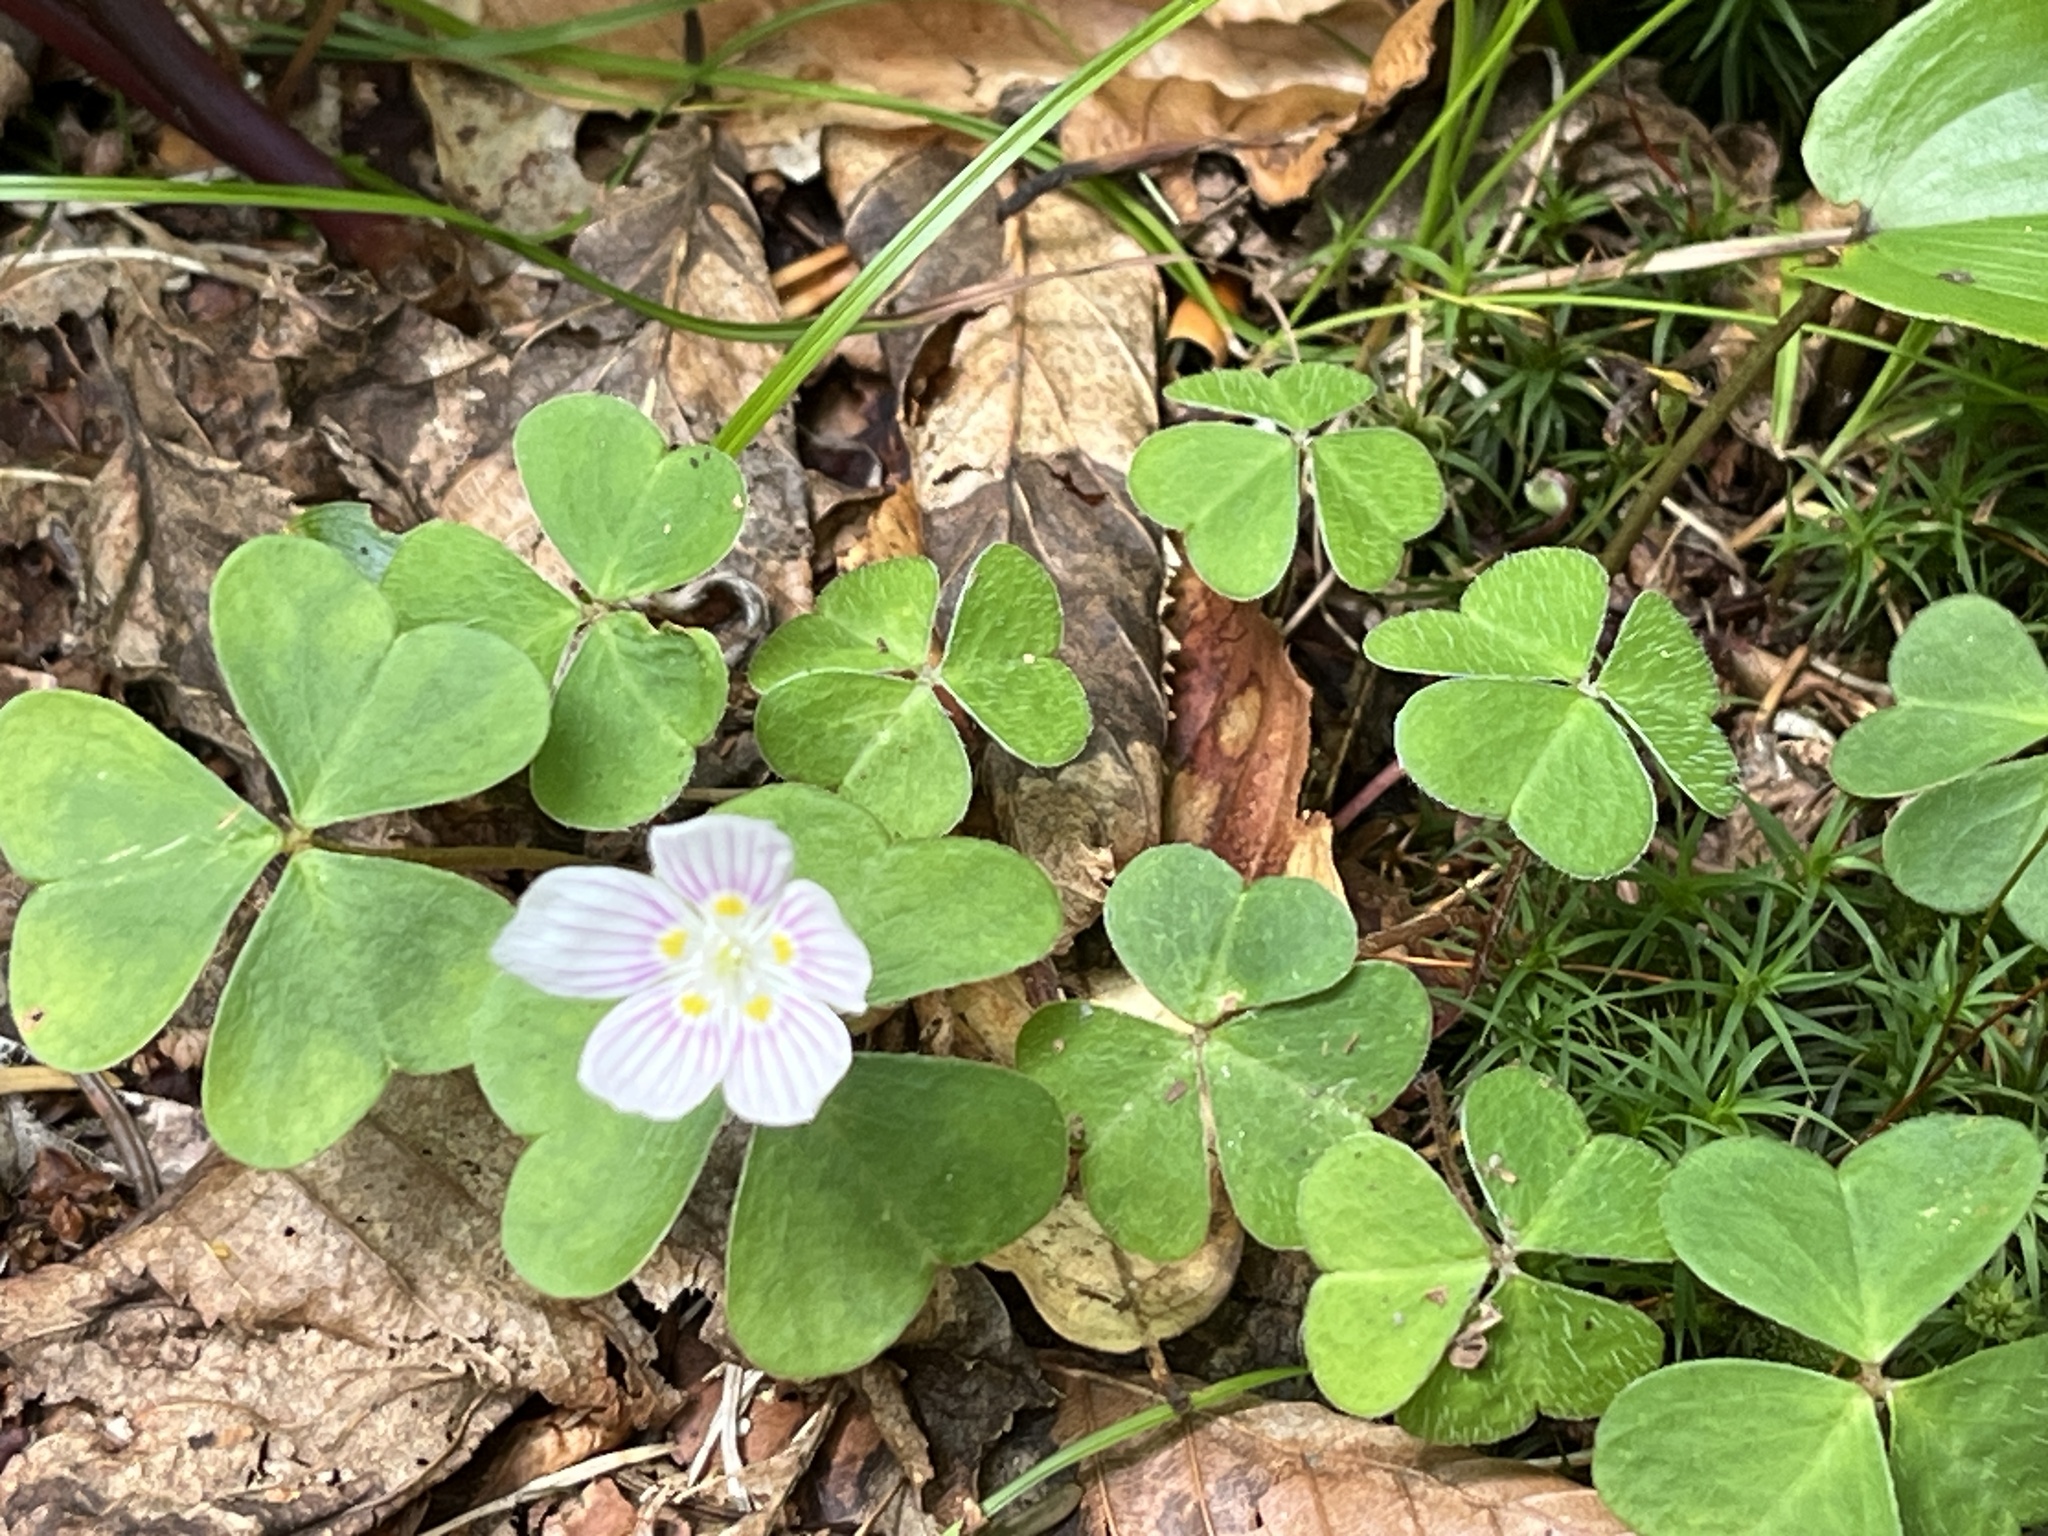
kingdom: Plantae
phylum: Tracheophyta
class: Magnoliopsida
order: Oxalidales
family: Oxalidaceae
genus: Oxalis
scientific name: Oxalis montana
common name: American wood-sorrel
